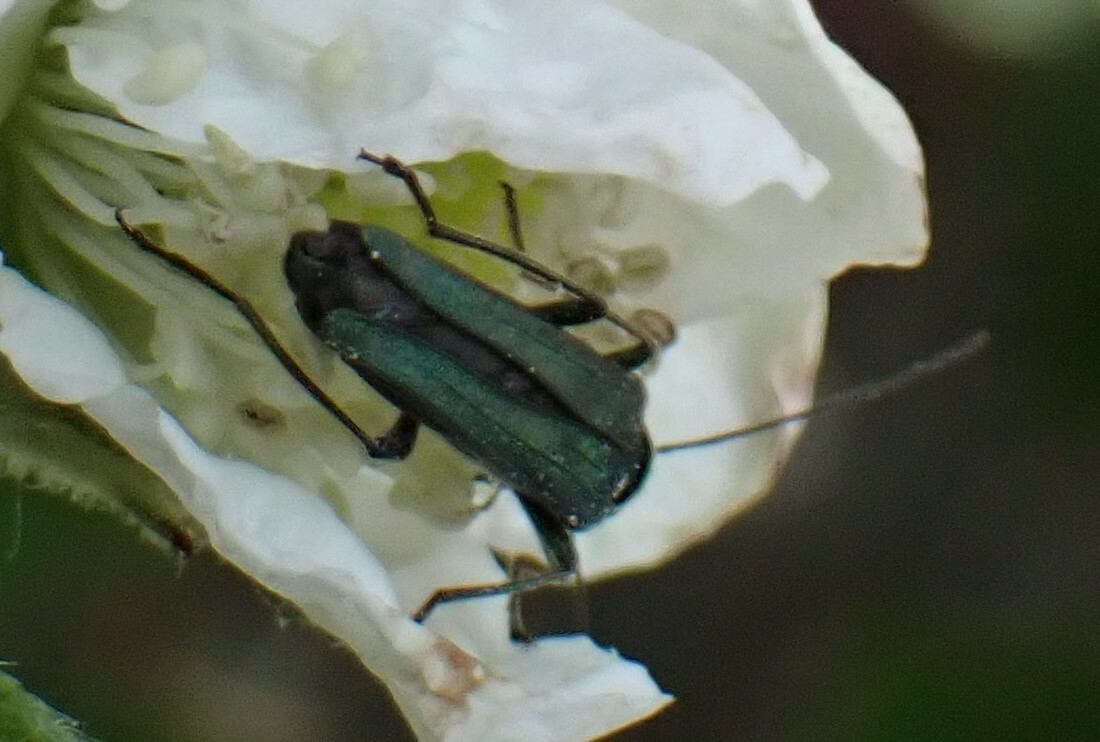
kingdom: Animalia
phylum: Arthropoda
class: Insecta
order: Coleoptera
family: Oedemeridae
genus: Oedemera
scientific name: Oedemera nobilis
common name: Swollen-thighed beetle
